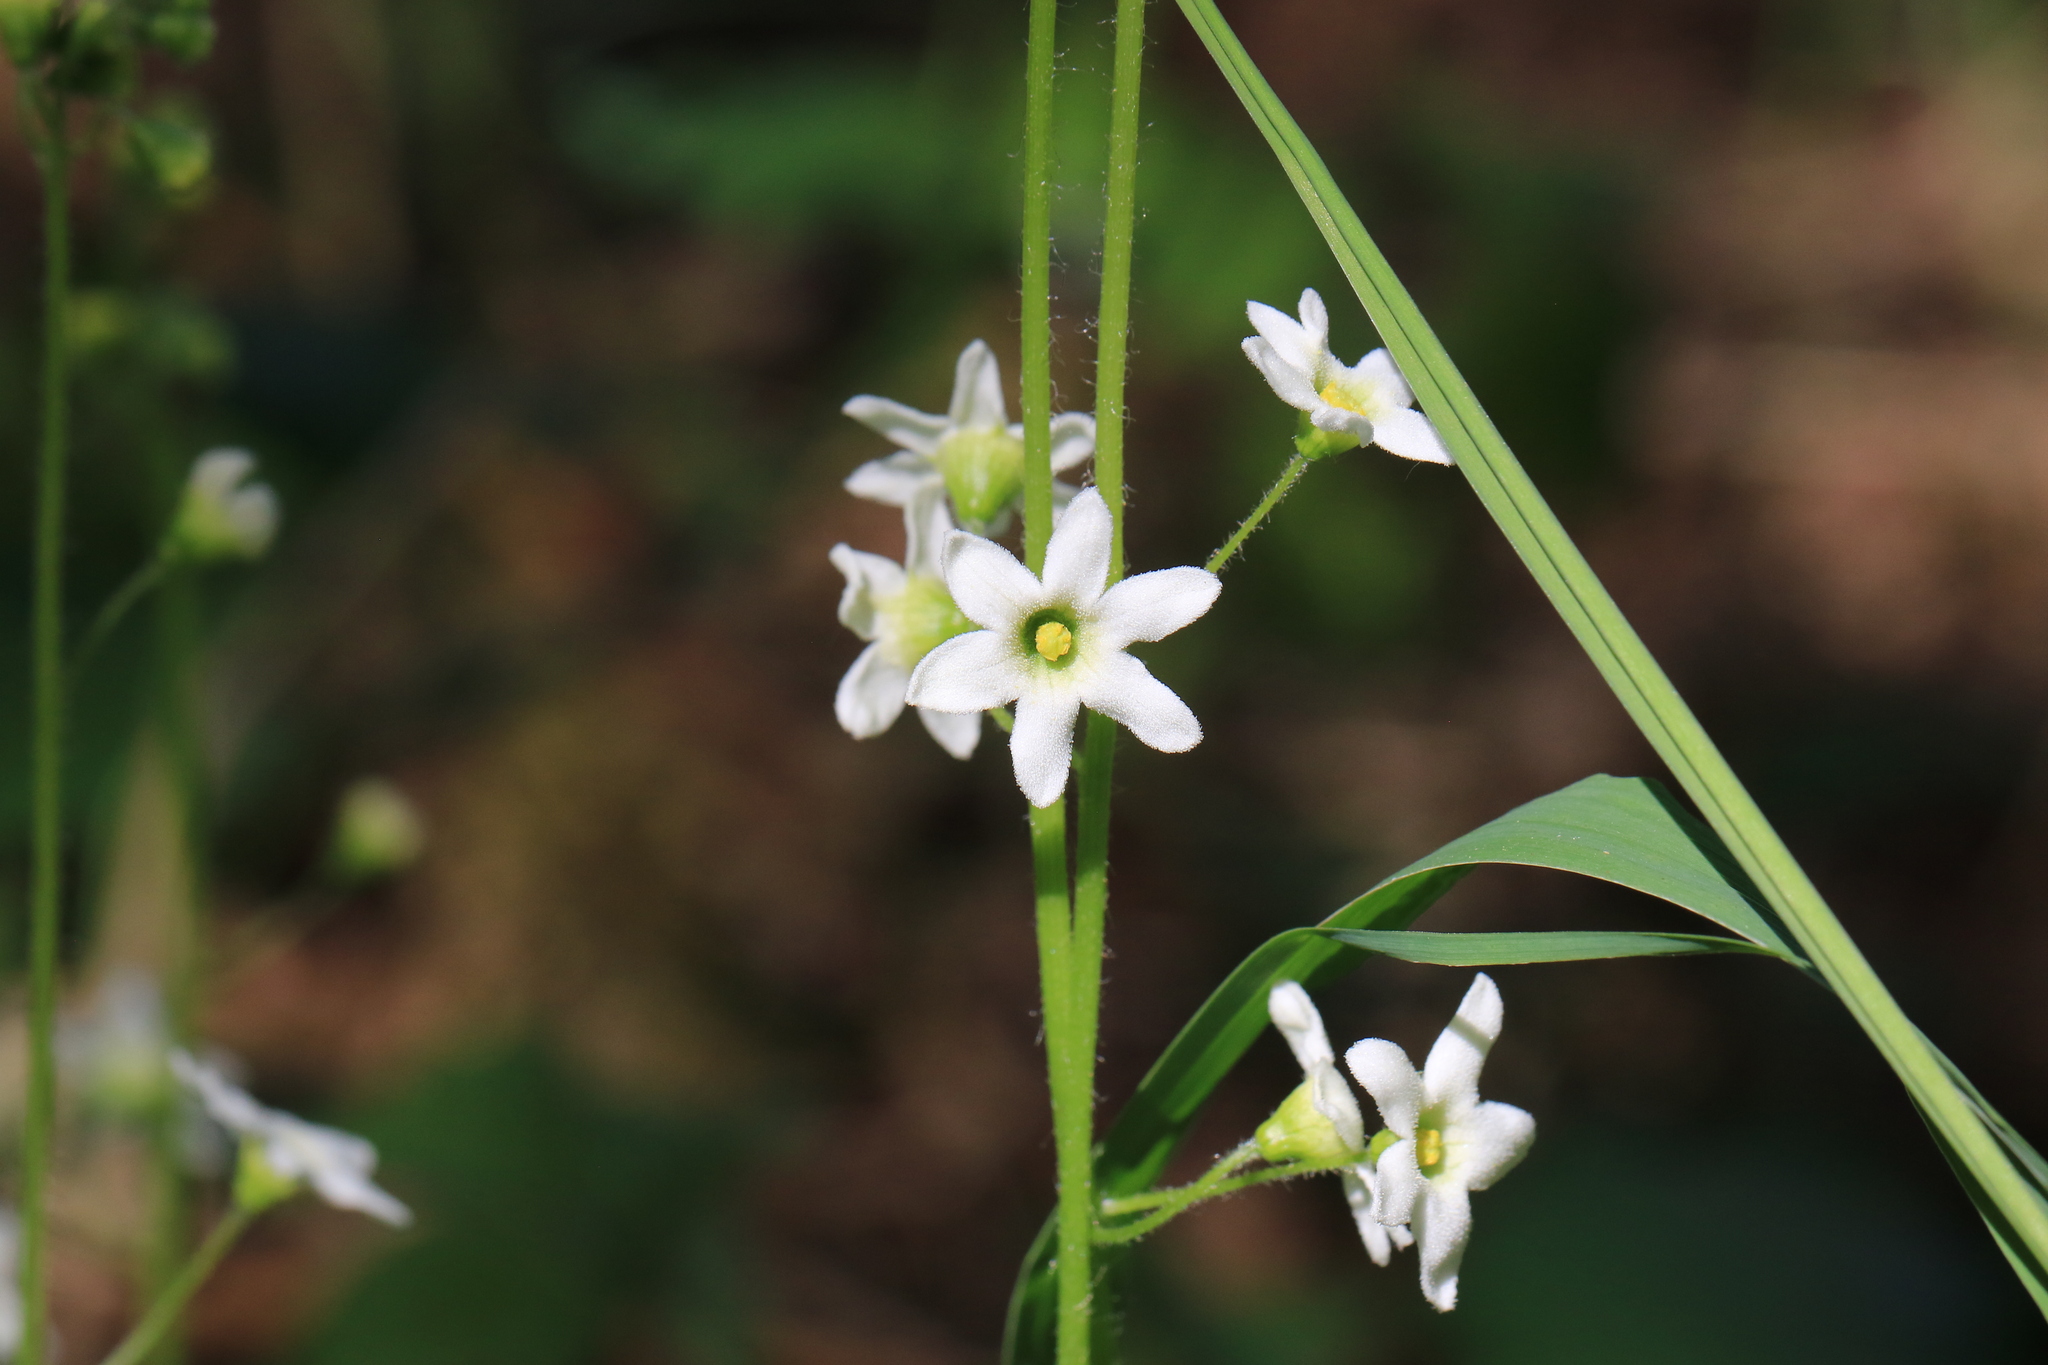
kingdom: Plantae
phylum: Tracheophyta
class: Magnoliopsida
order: Cucurbitales
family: Cucurbitaceae
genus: Marah
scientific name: Marah oregana
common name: Coastal manroot
